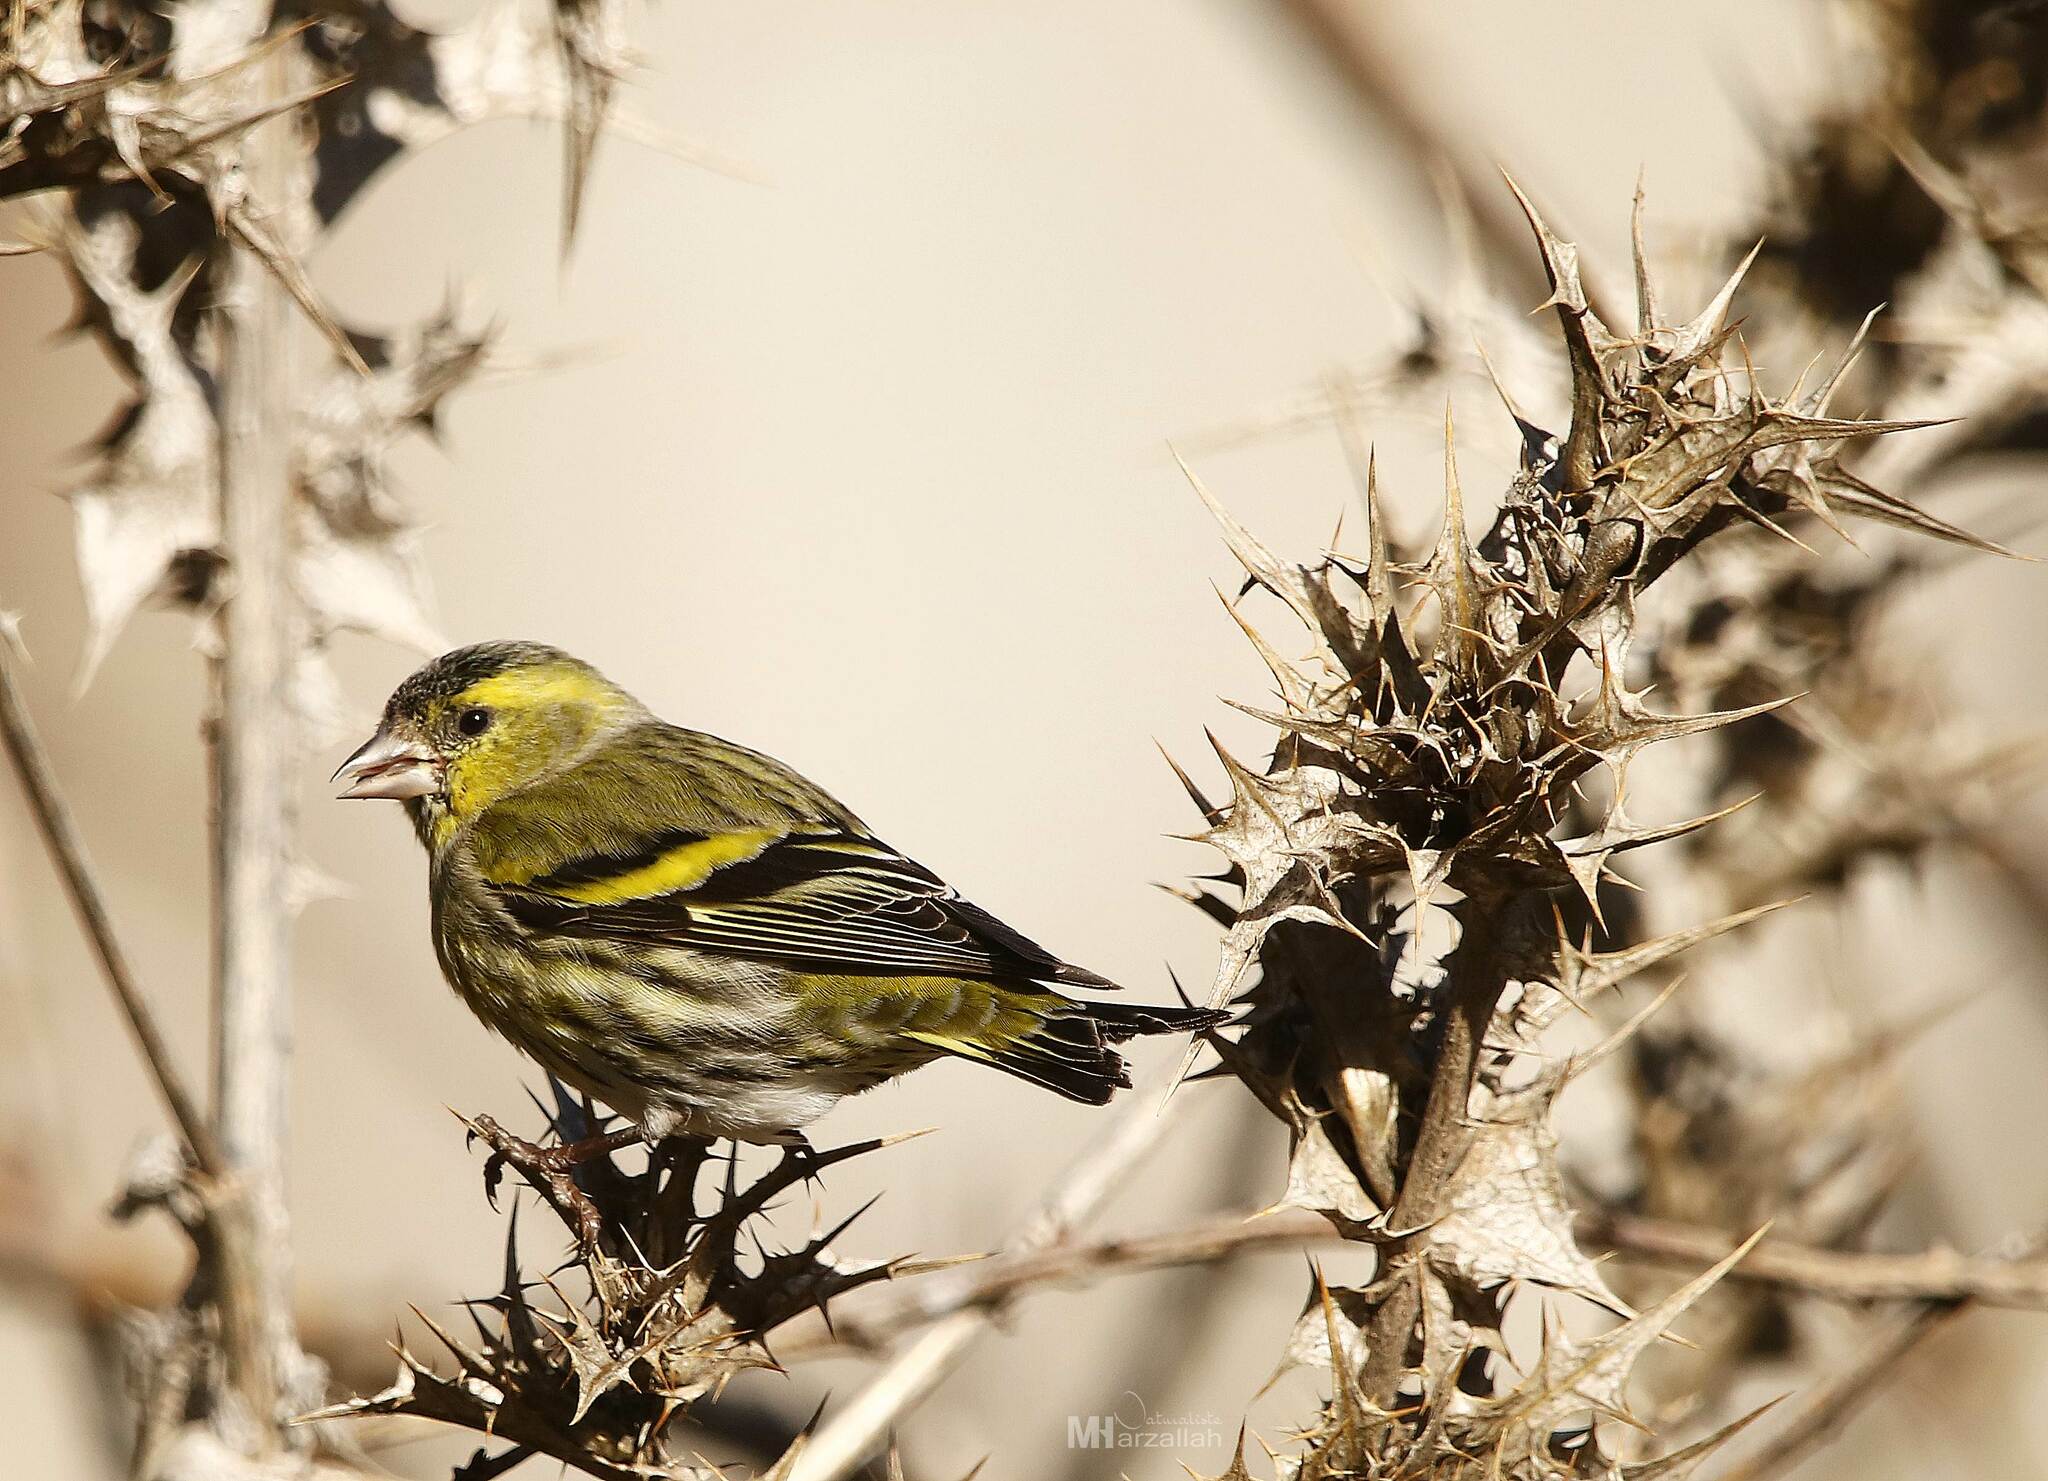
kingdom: Animalia
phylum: Chordata
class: Aves
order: Passeriformes
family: Fringillidae
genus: Spinus
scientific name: Spinus spinus
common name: Eurasian siskin
